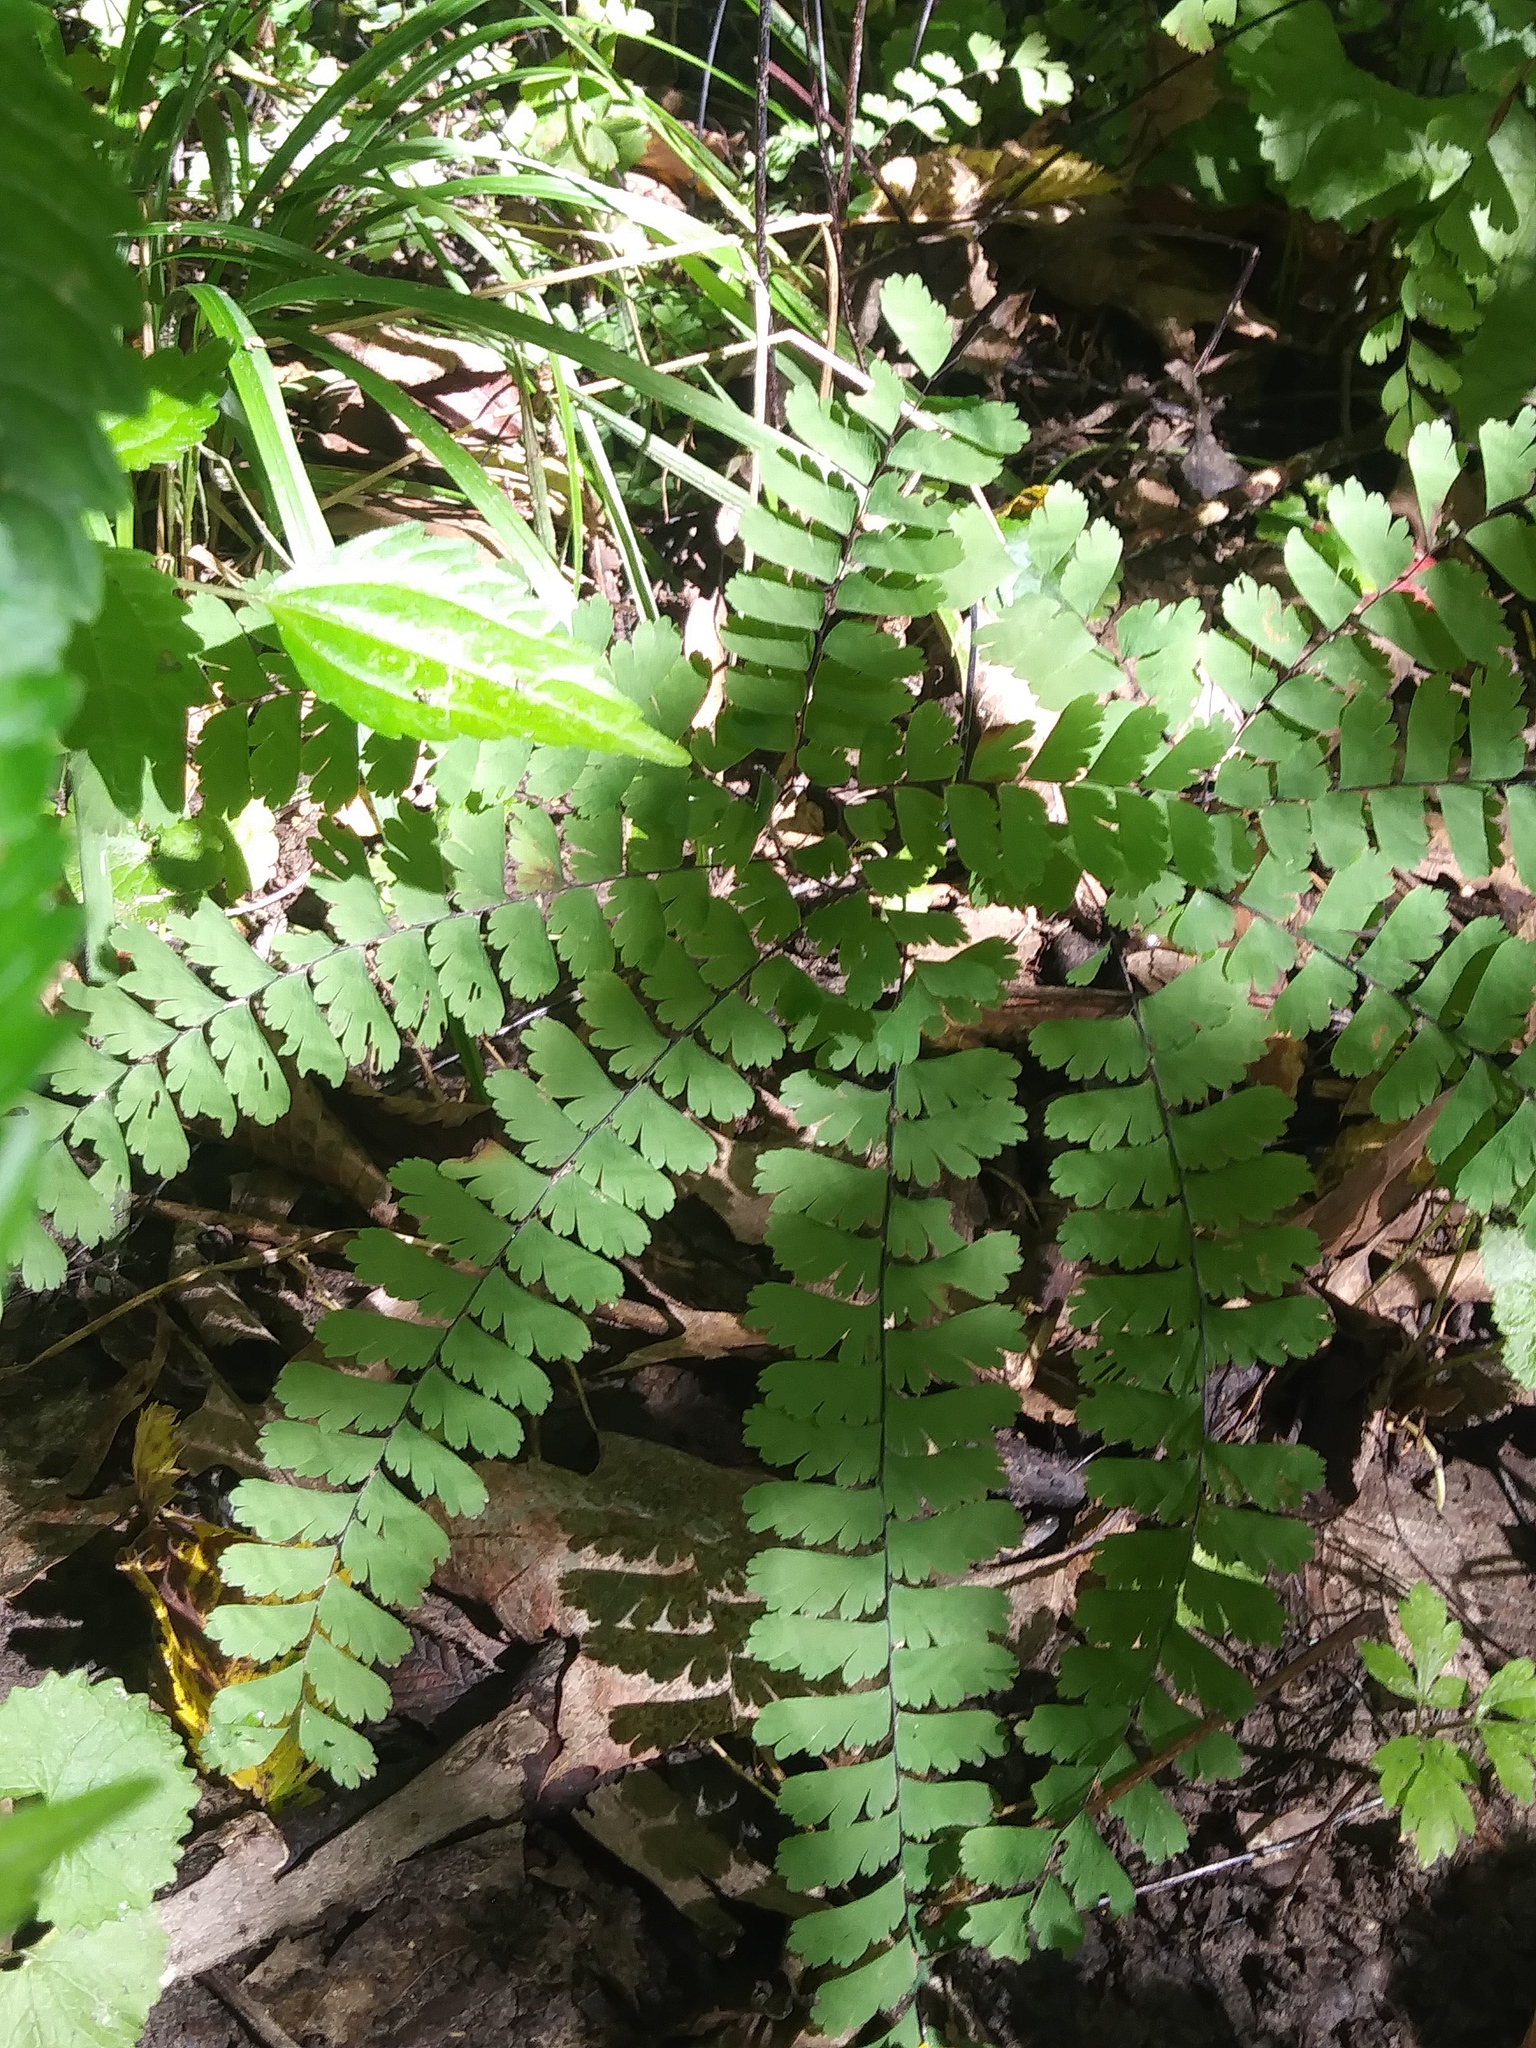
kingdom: Plantae
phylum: Tracheophyta
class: Polypodiopsida
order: Polypodiales
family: Pteridaceae
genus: Adiantum
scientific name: Adiantum pedatum
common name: Five-finger fern
